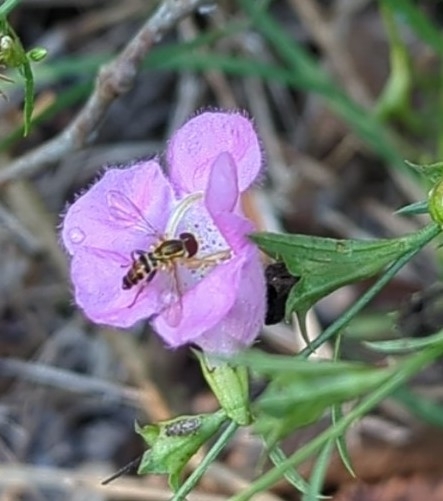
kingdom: Animalia
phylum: Arthropoda
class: Insecta
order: Diptera
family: Syrphidae
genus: Toxomerus
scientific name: Toxomerus geminatus
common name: Eastern calligrapher
